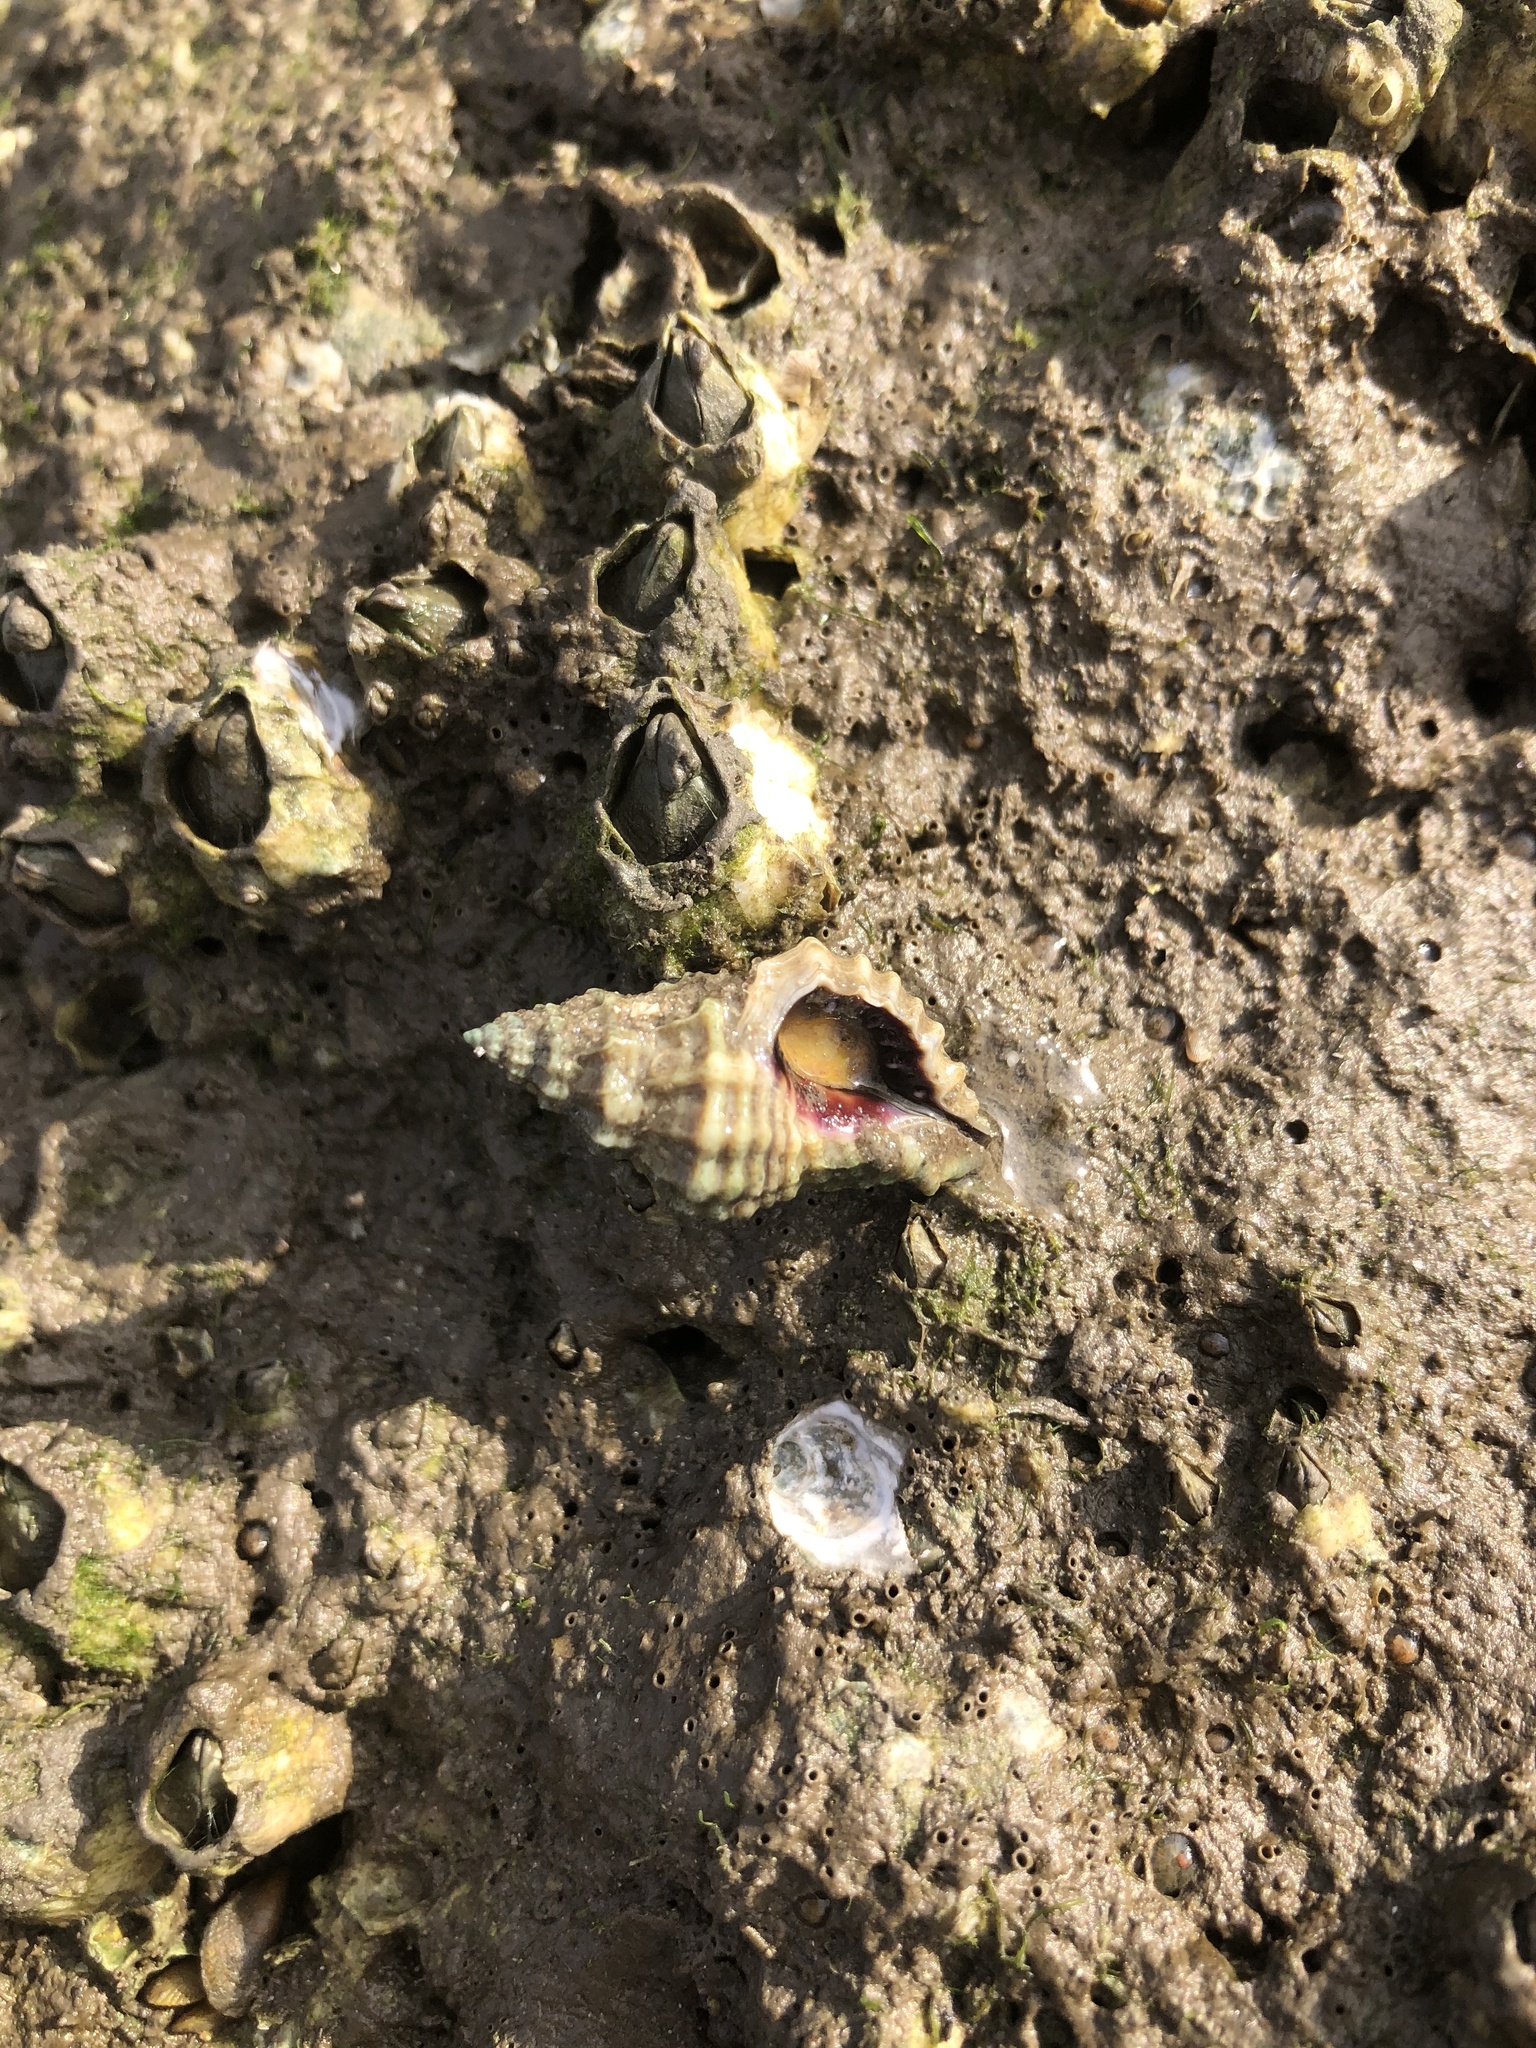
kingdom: Animalia
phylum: Mollusca
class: Gastropoda
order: Neogastropoda
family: Muricidae
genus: Eupleura
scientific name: Eupleura tampaensis
